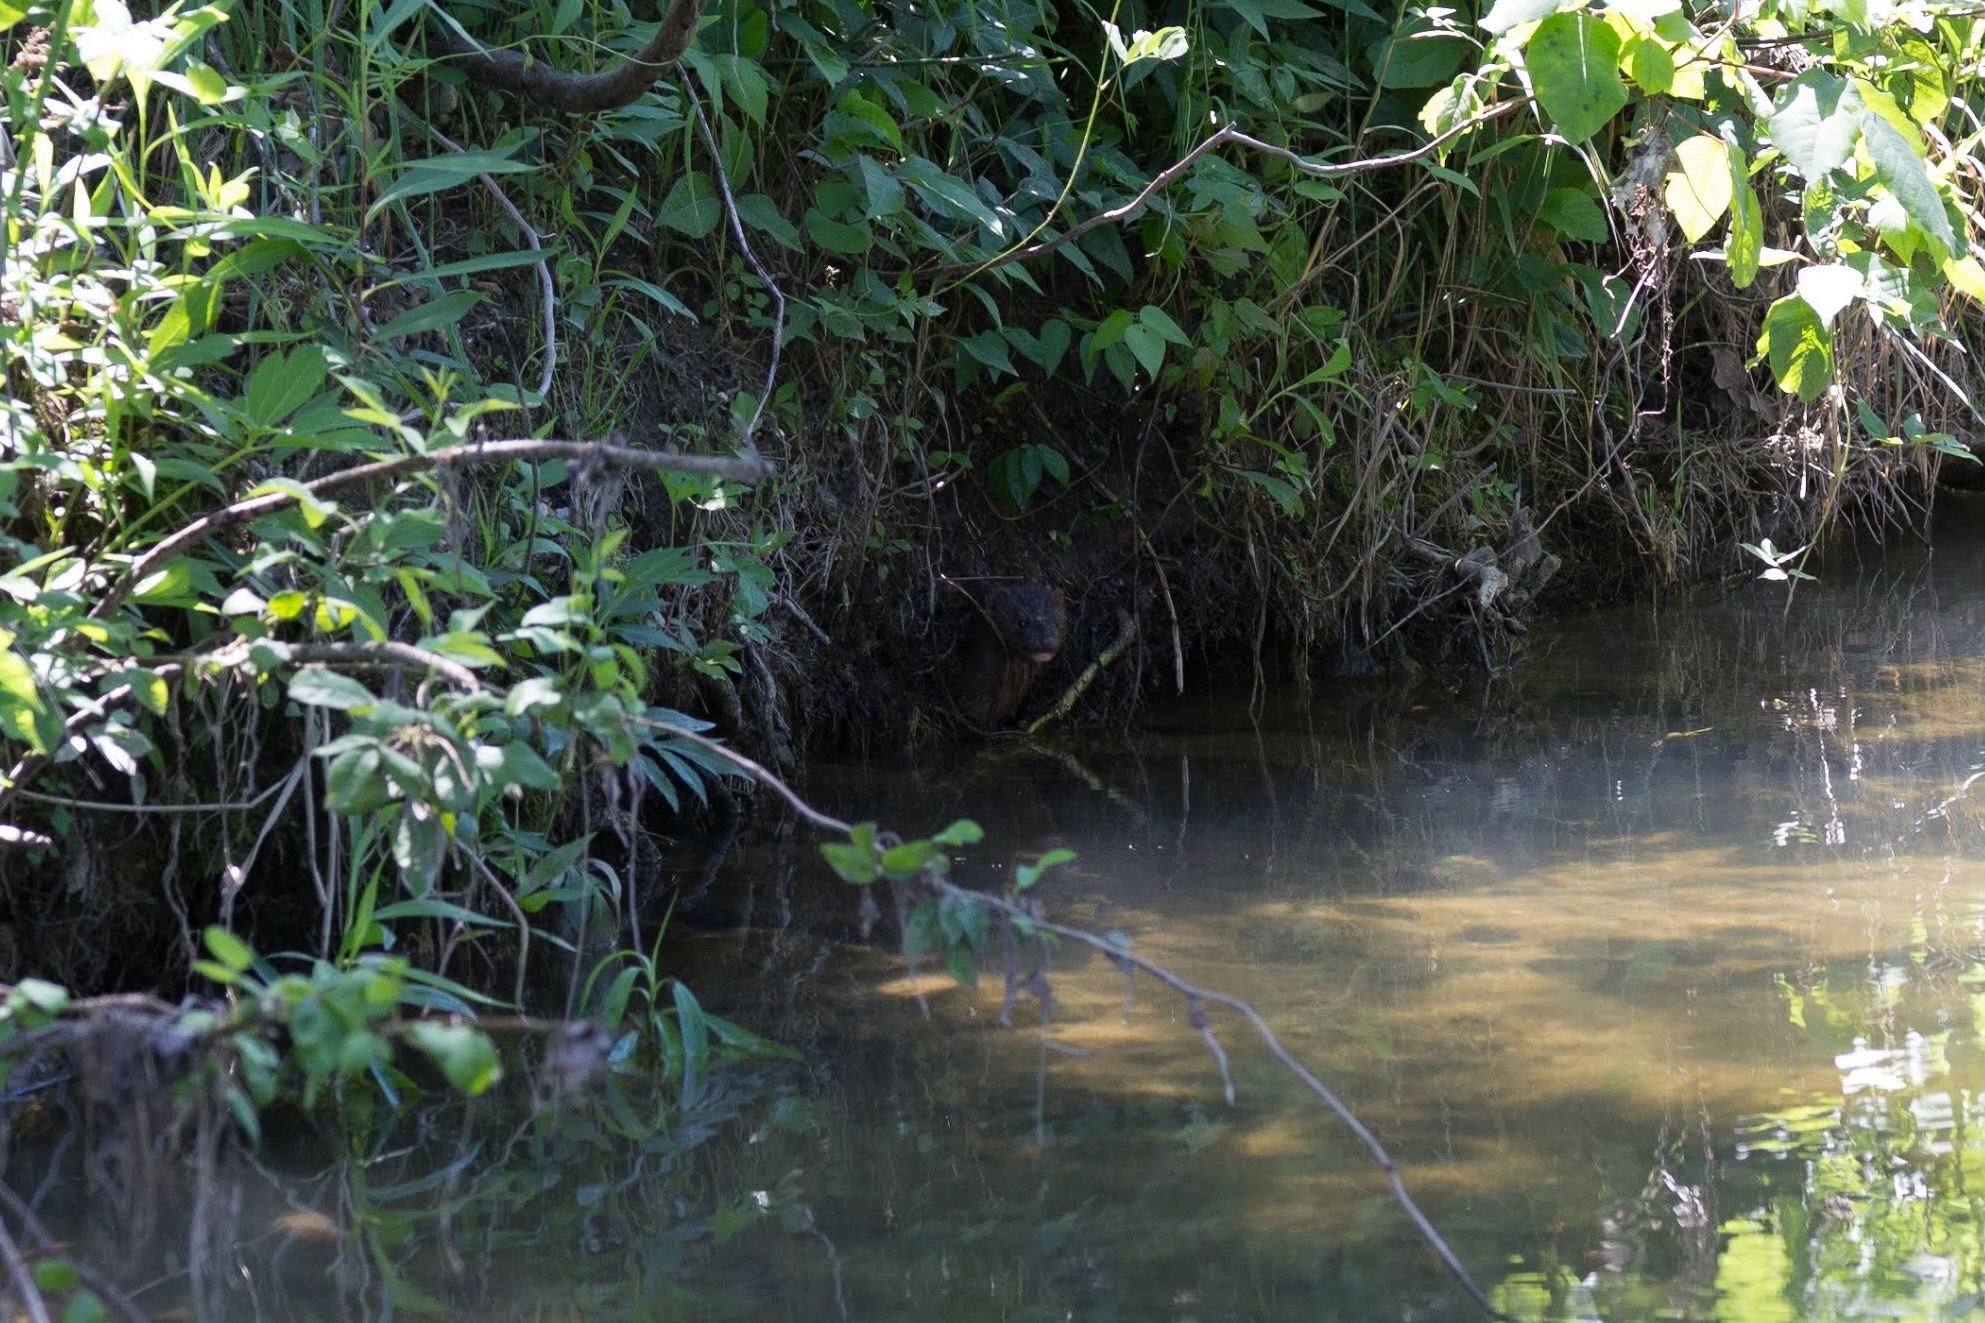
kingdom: Animalia
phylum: Chordata
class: Mammalia
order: Carnivora
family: Mustelidae
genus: Mustela
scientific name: Mustela
